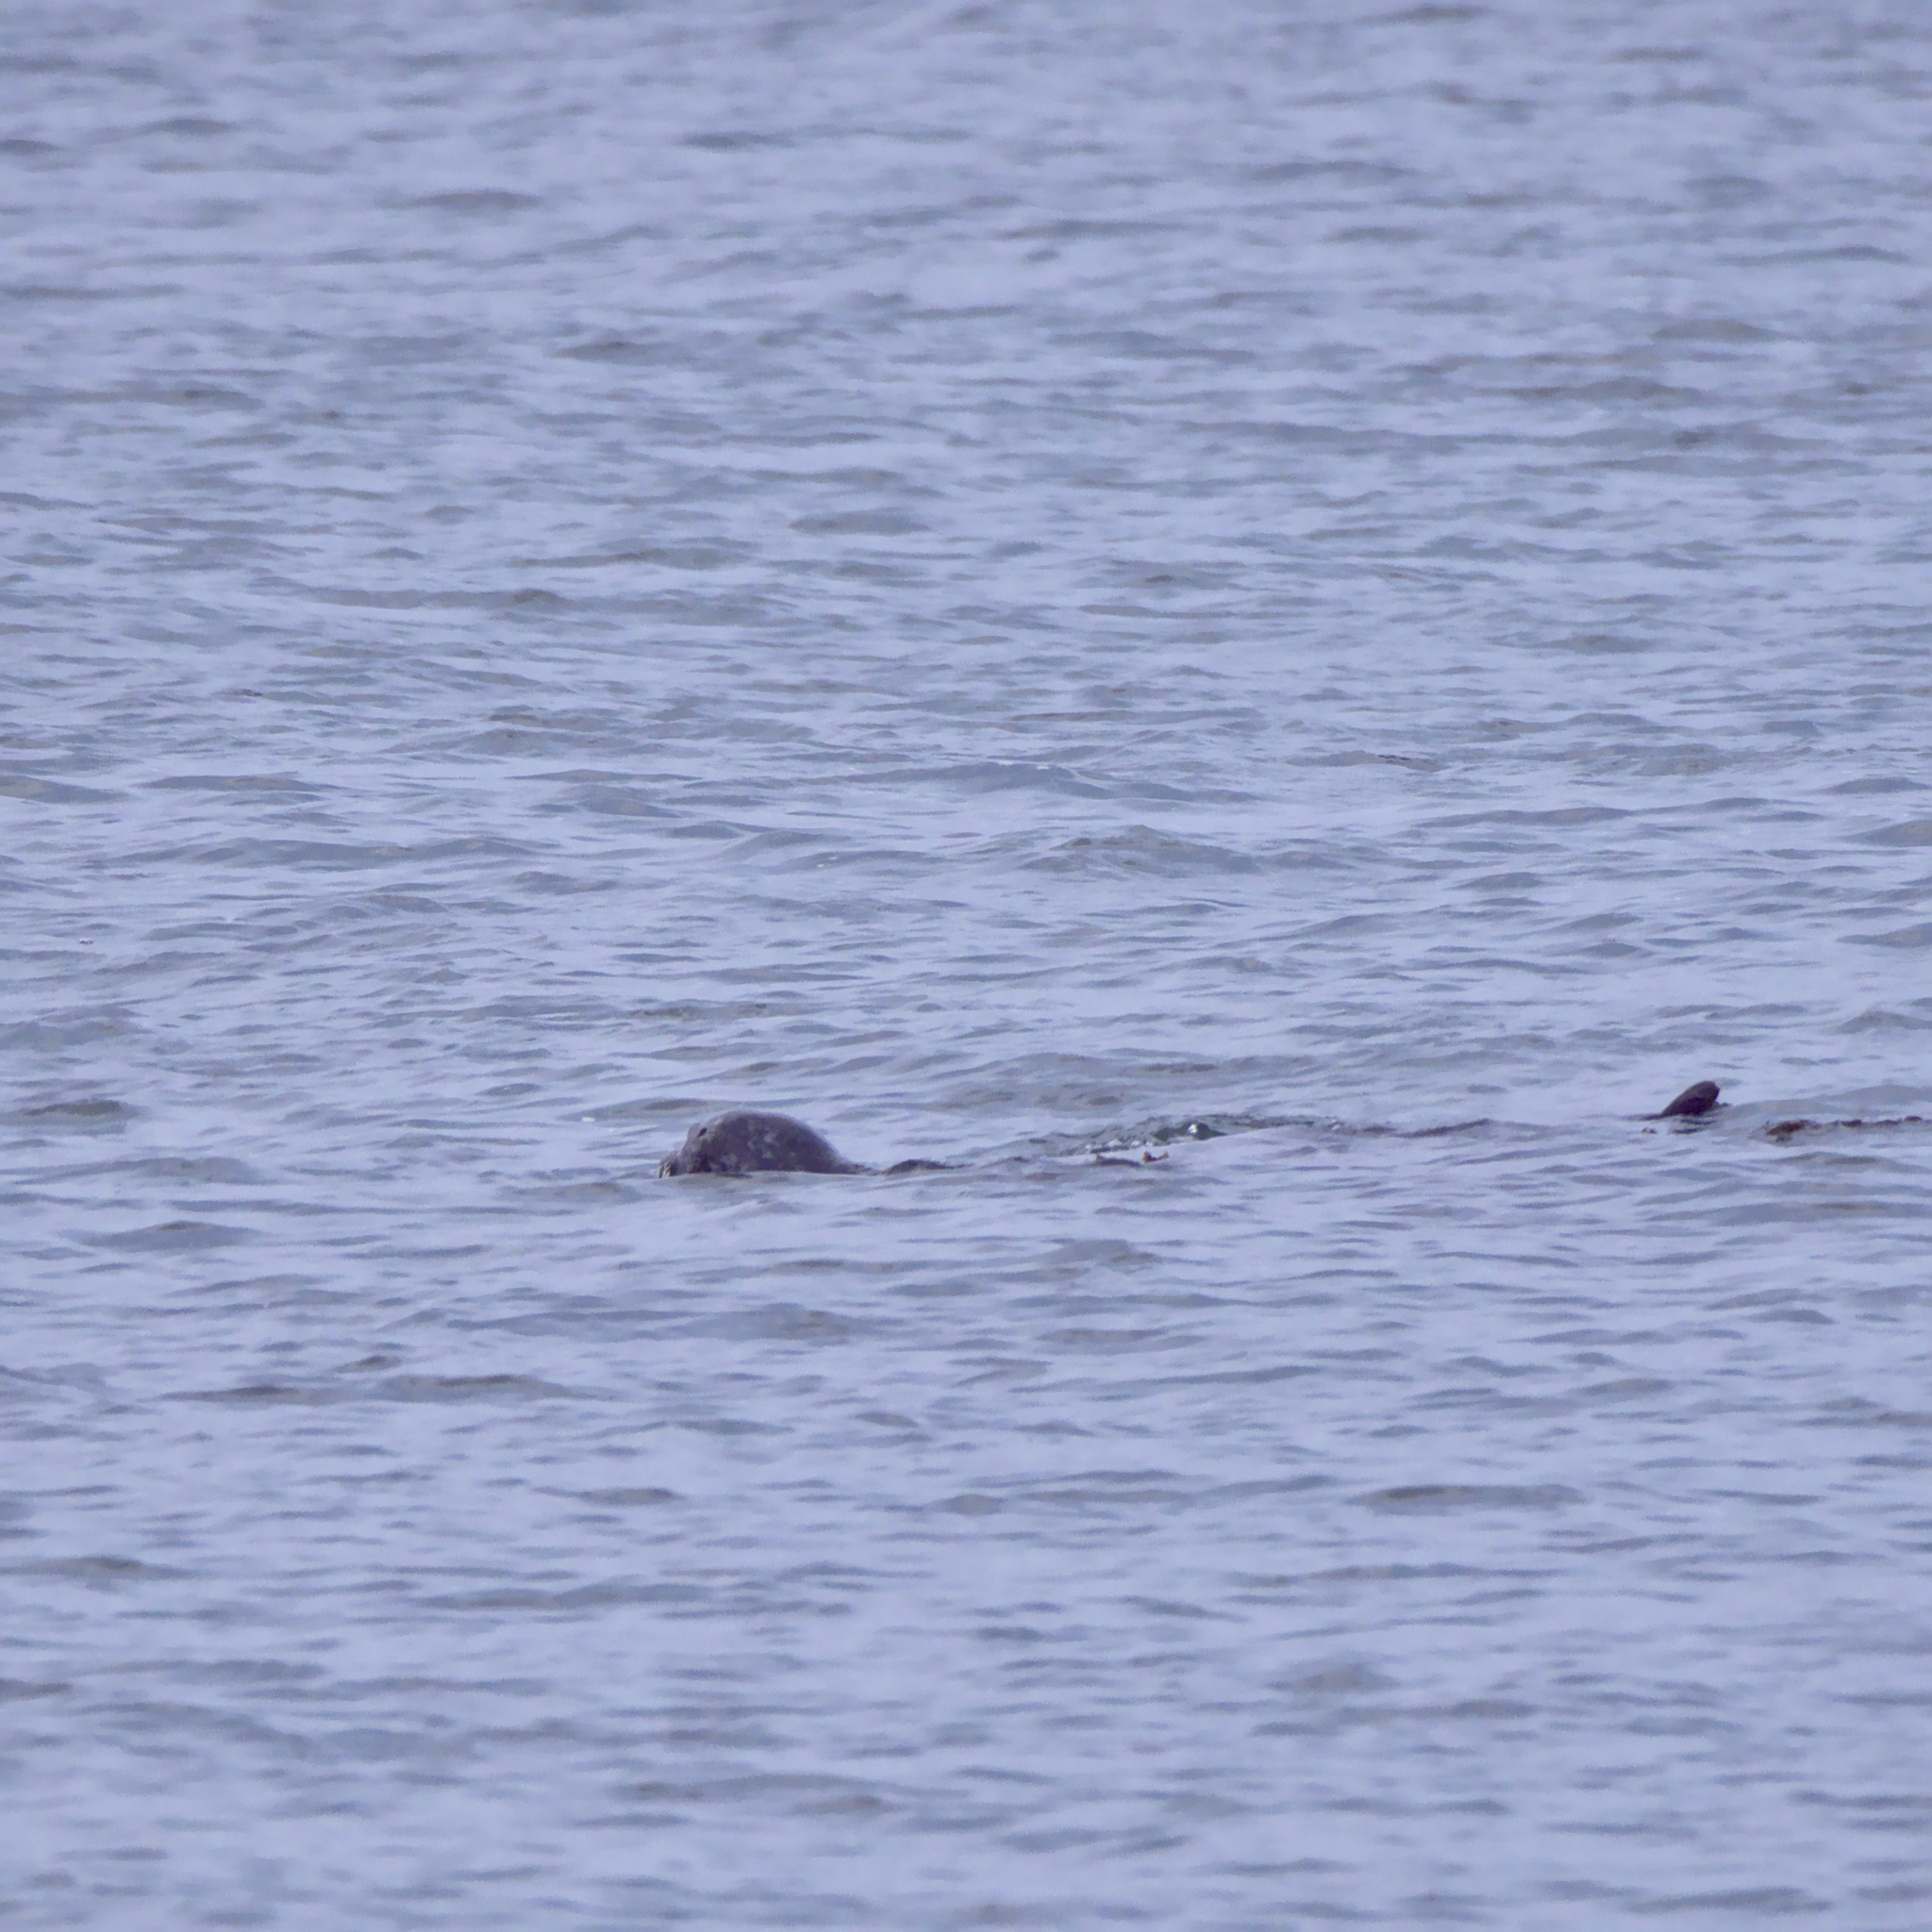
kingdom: Animalia
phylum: Chordata
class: Mammalia
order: Carnivora
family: Phocidae
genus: Phoca
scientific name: Phoca vitulina
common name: Harbor seal
